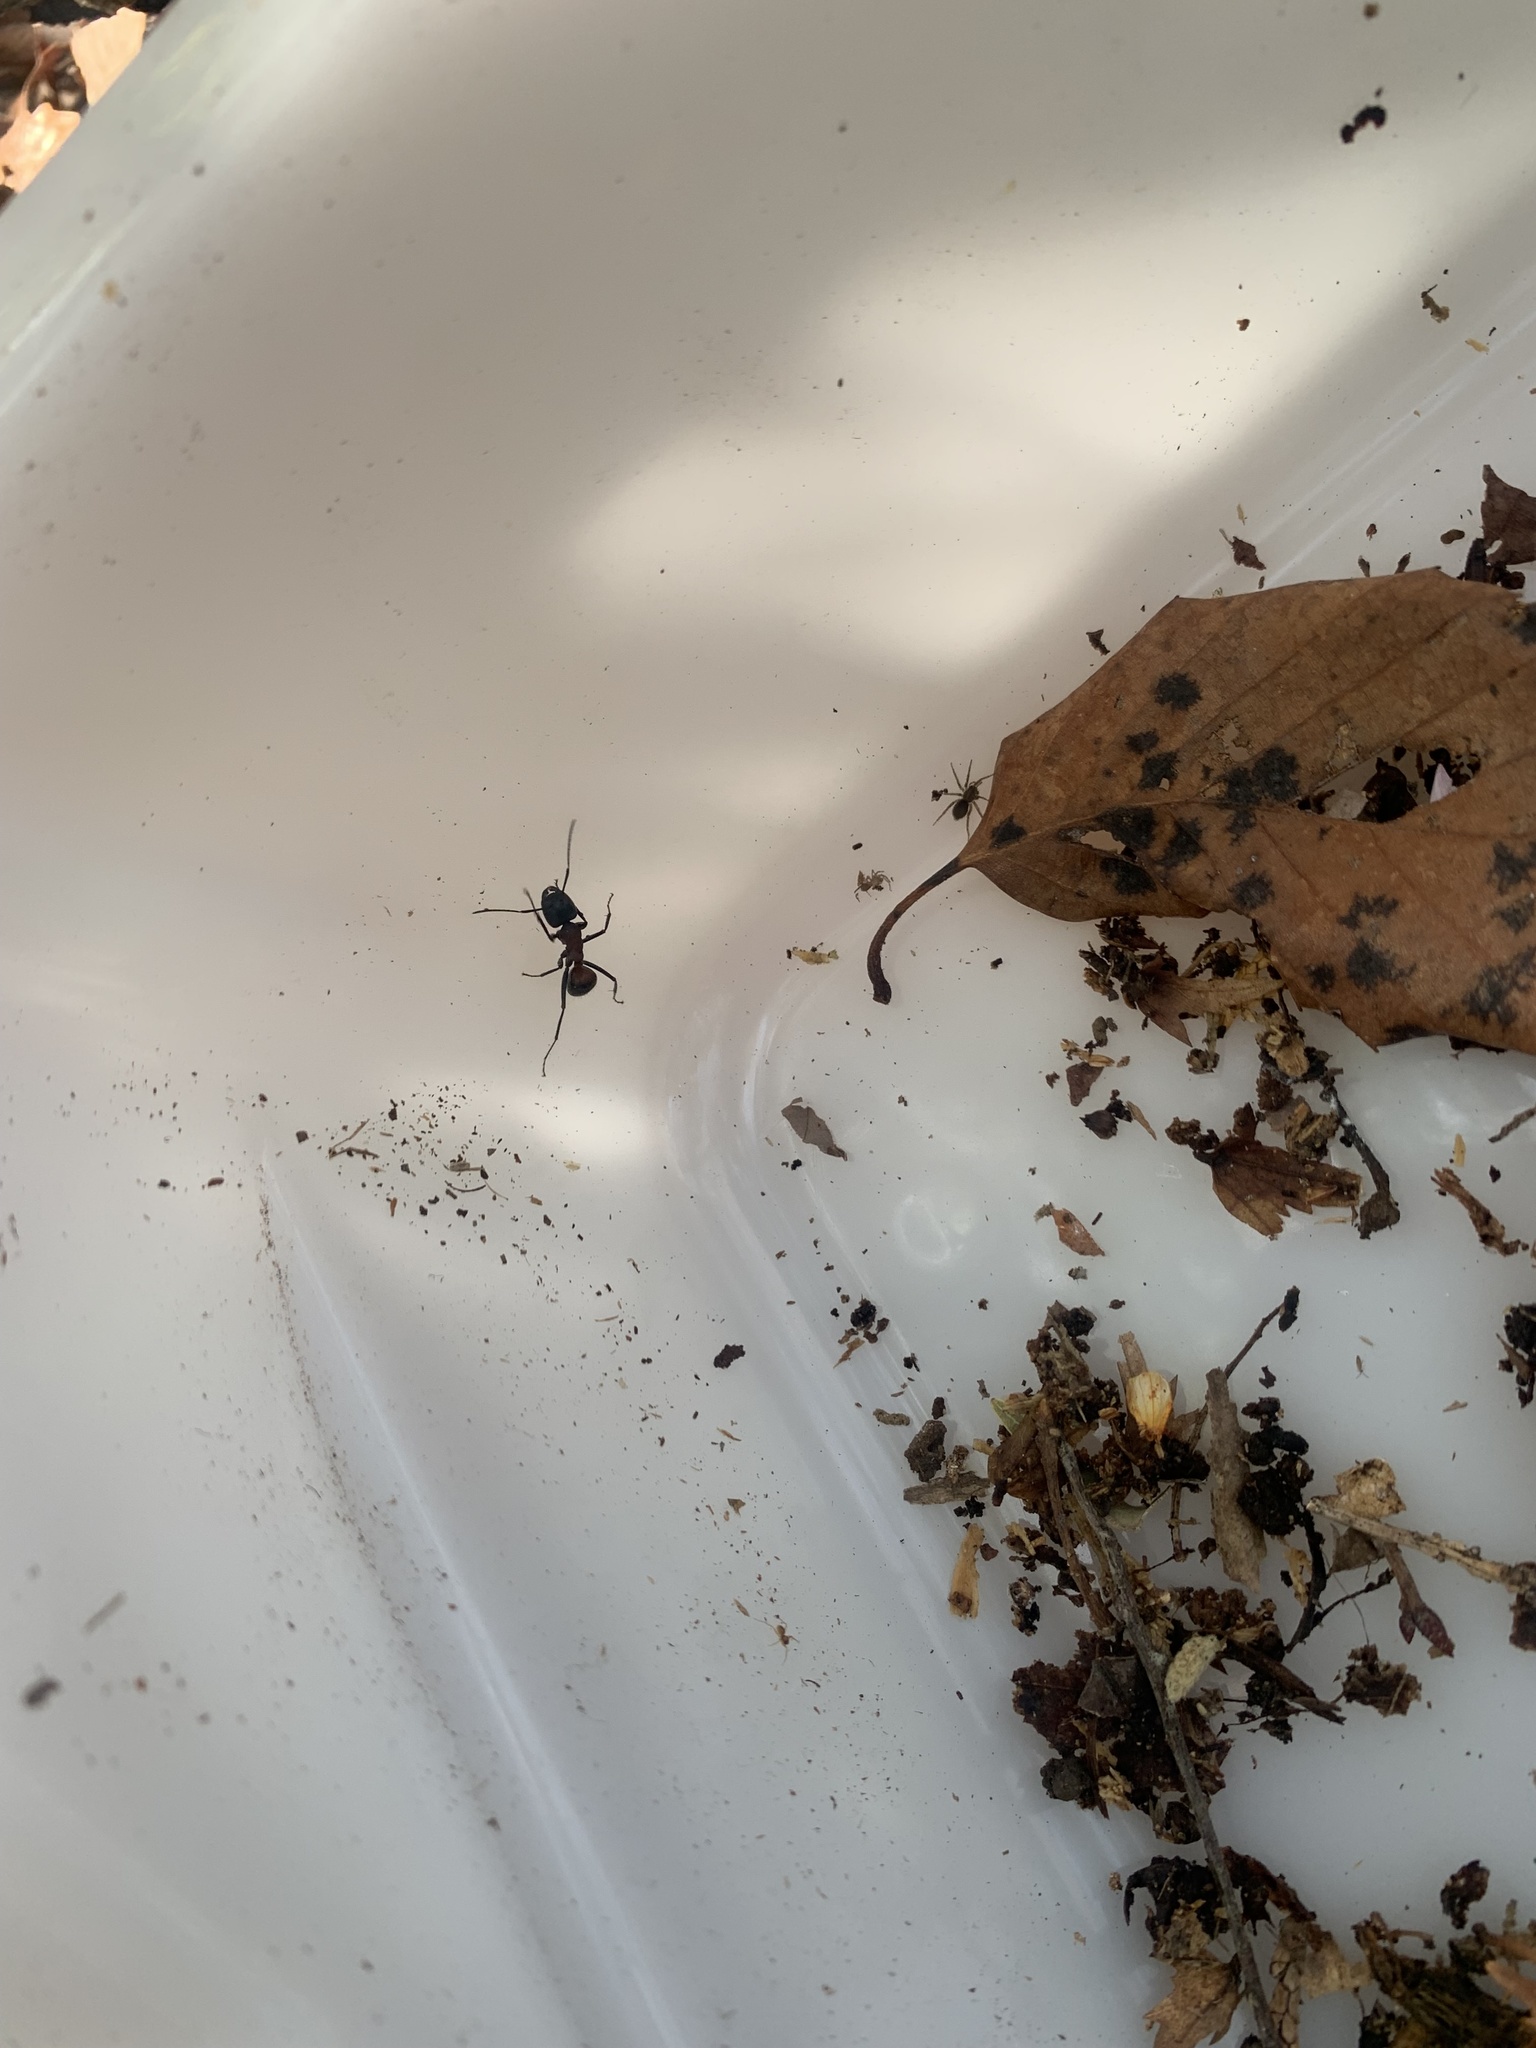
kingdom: Animalia
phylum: Arthropoda
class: Insecta
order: Hymenoptera
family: Formicidae
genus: Camponotus
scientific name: Camponotus obscuripes
